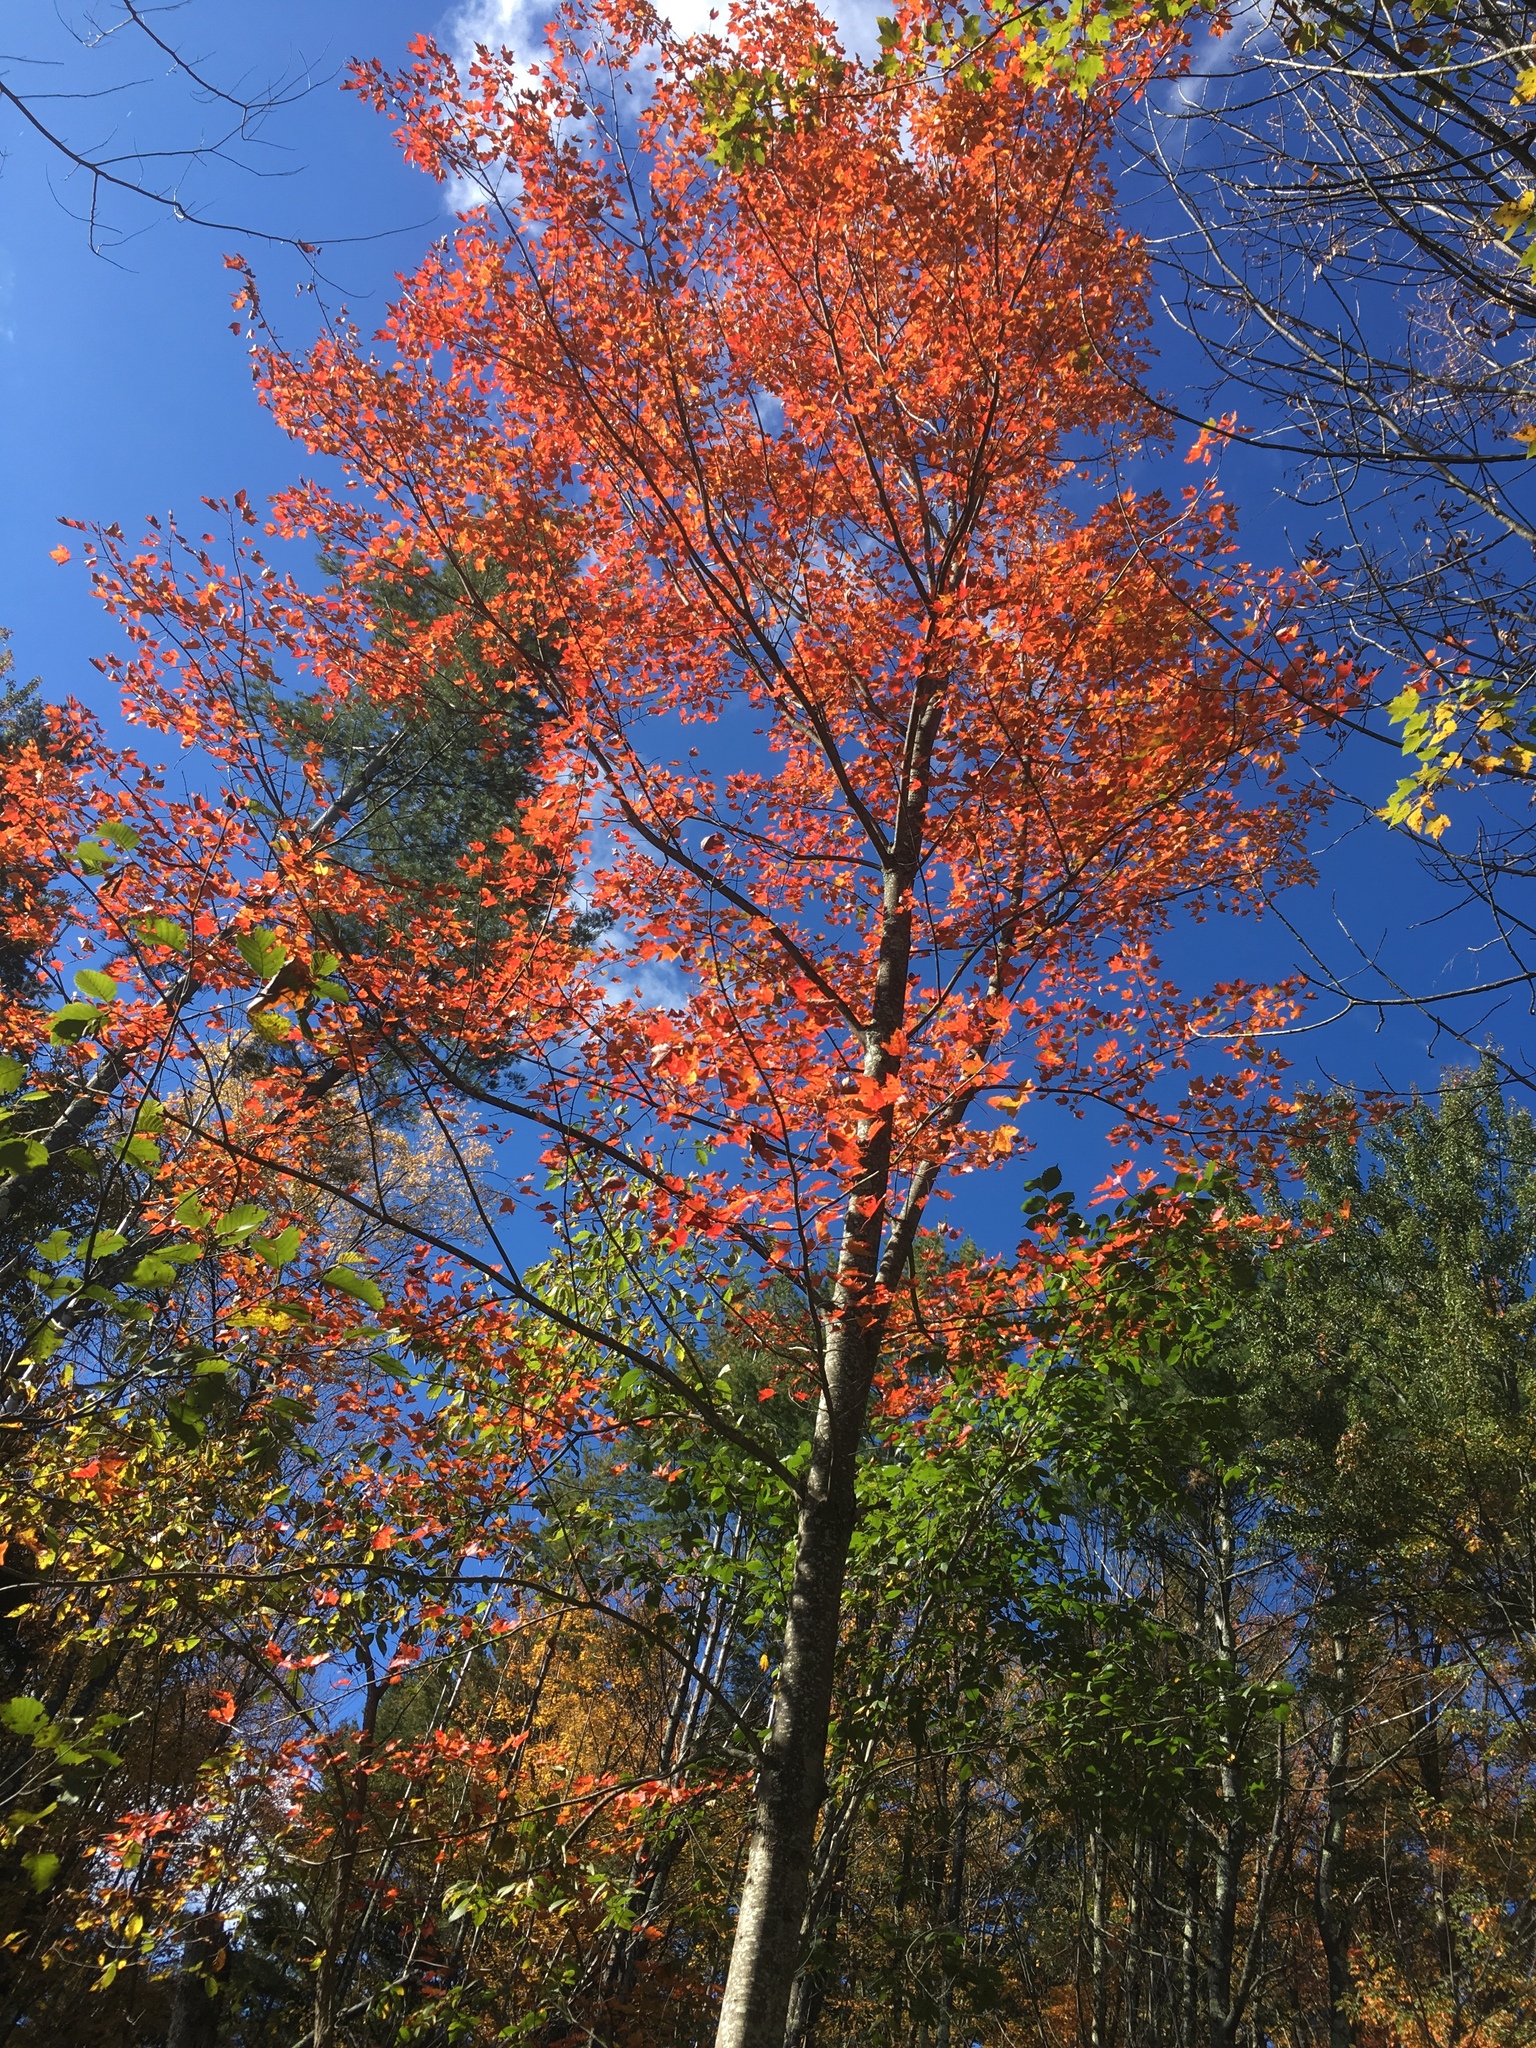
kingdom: Plantae
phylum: Tracheophyta
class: Magnoliopsida
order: Sapindales
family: Sapindaceae
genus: Acer
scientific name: Acer rubrum
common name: Red maple
